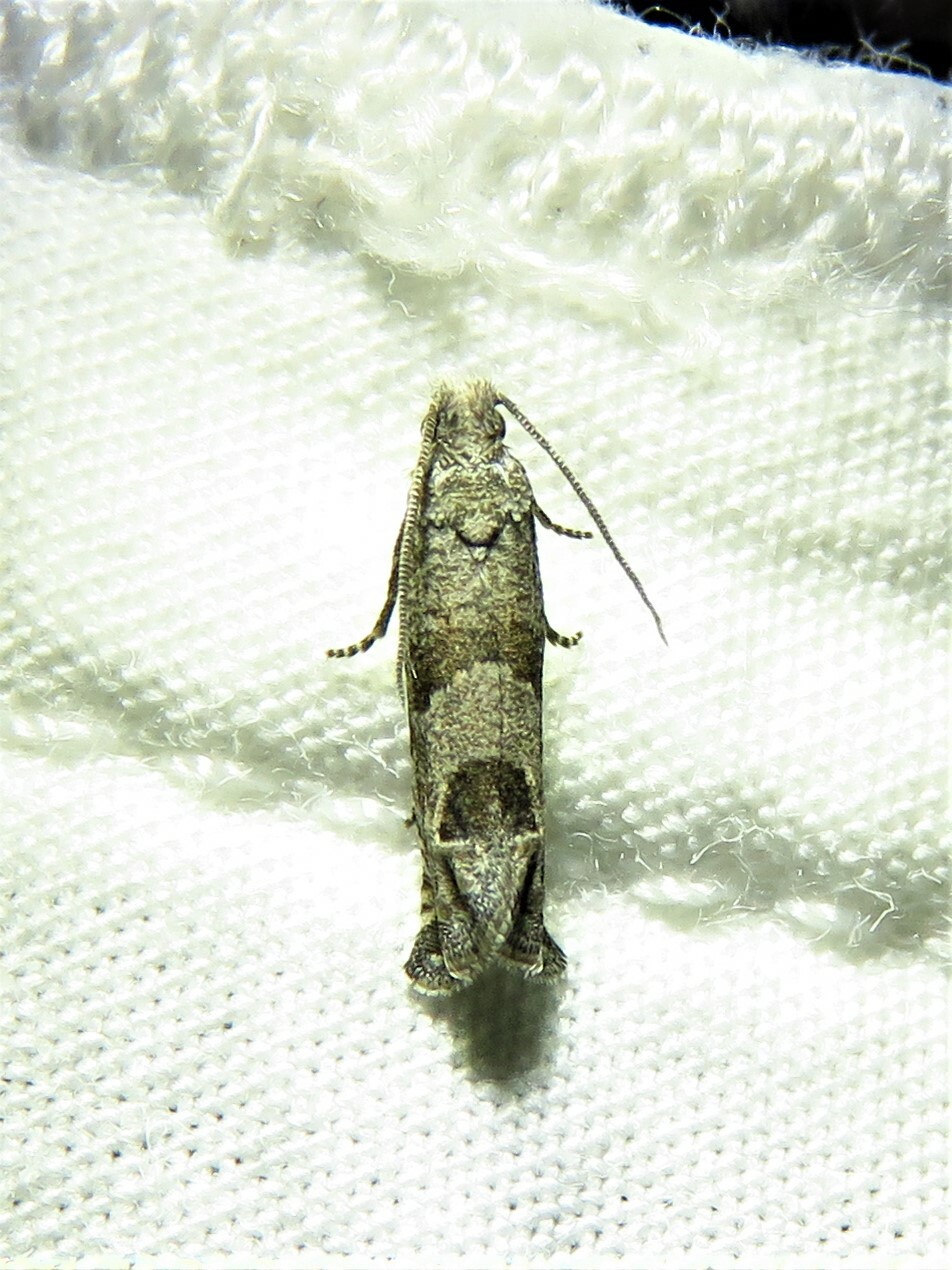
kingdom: Animalia
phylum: Arthropoda
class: Insecta
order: Lepidoptera
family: Tortricidae
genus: Pelochrista
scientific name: Pelochrista consobrinana
